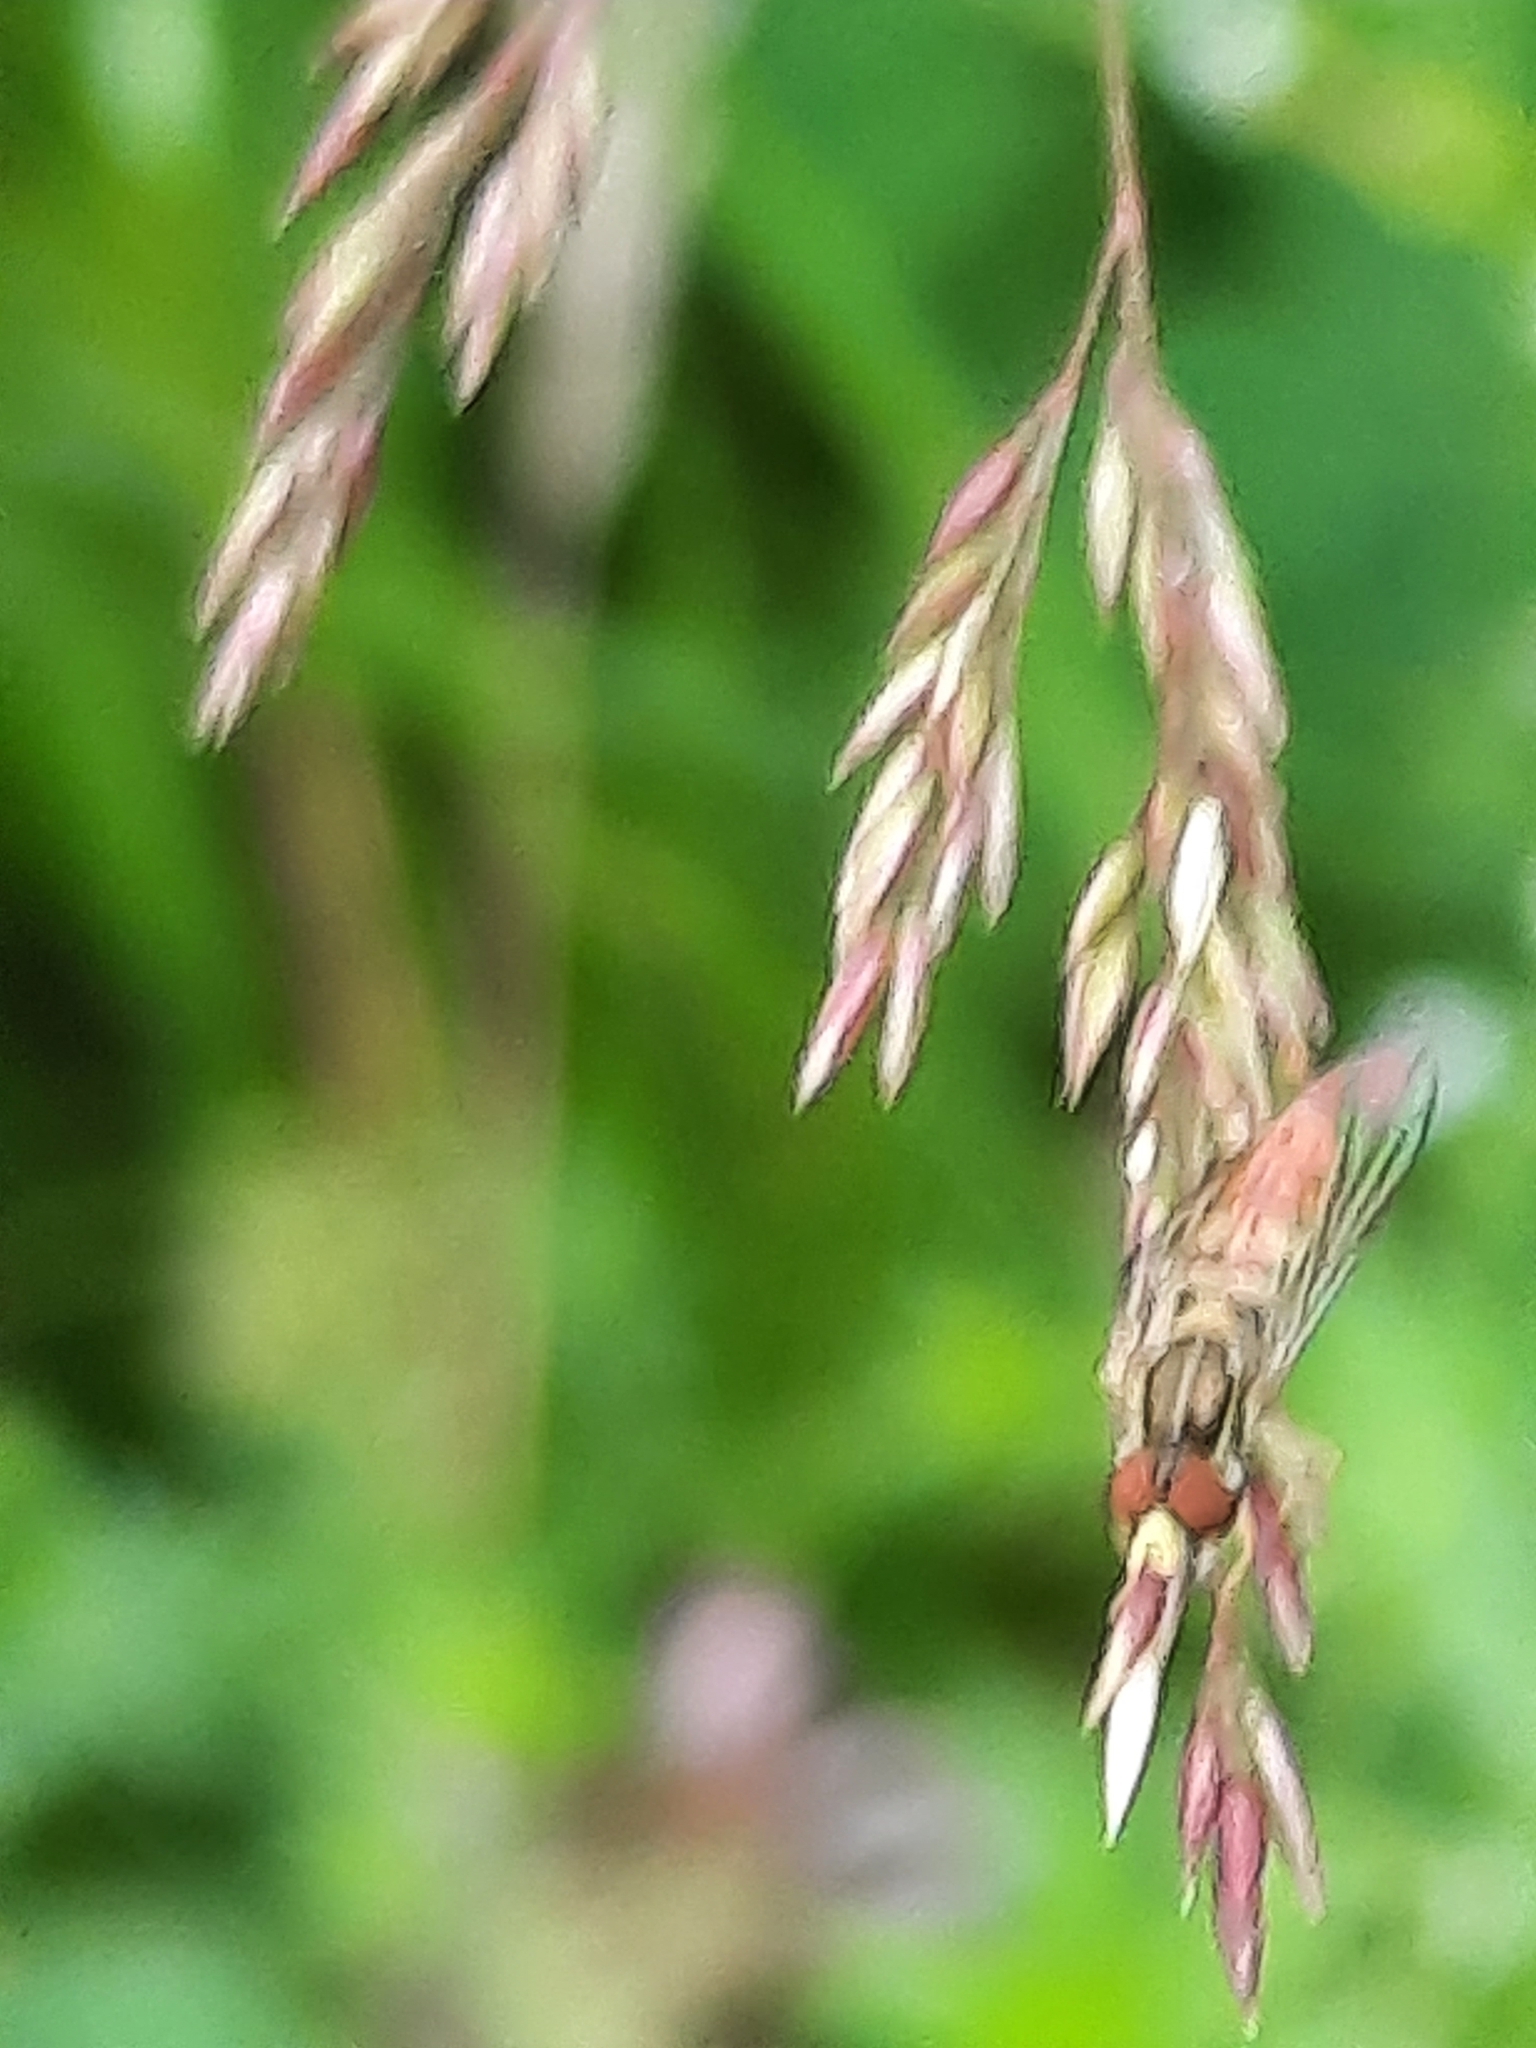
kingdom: Animalia
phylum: Arthropoda
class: Insecta
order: Diptera
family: Syrphidae
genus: Toxomerus
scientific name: Toxomerus
